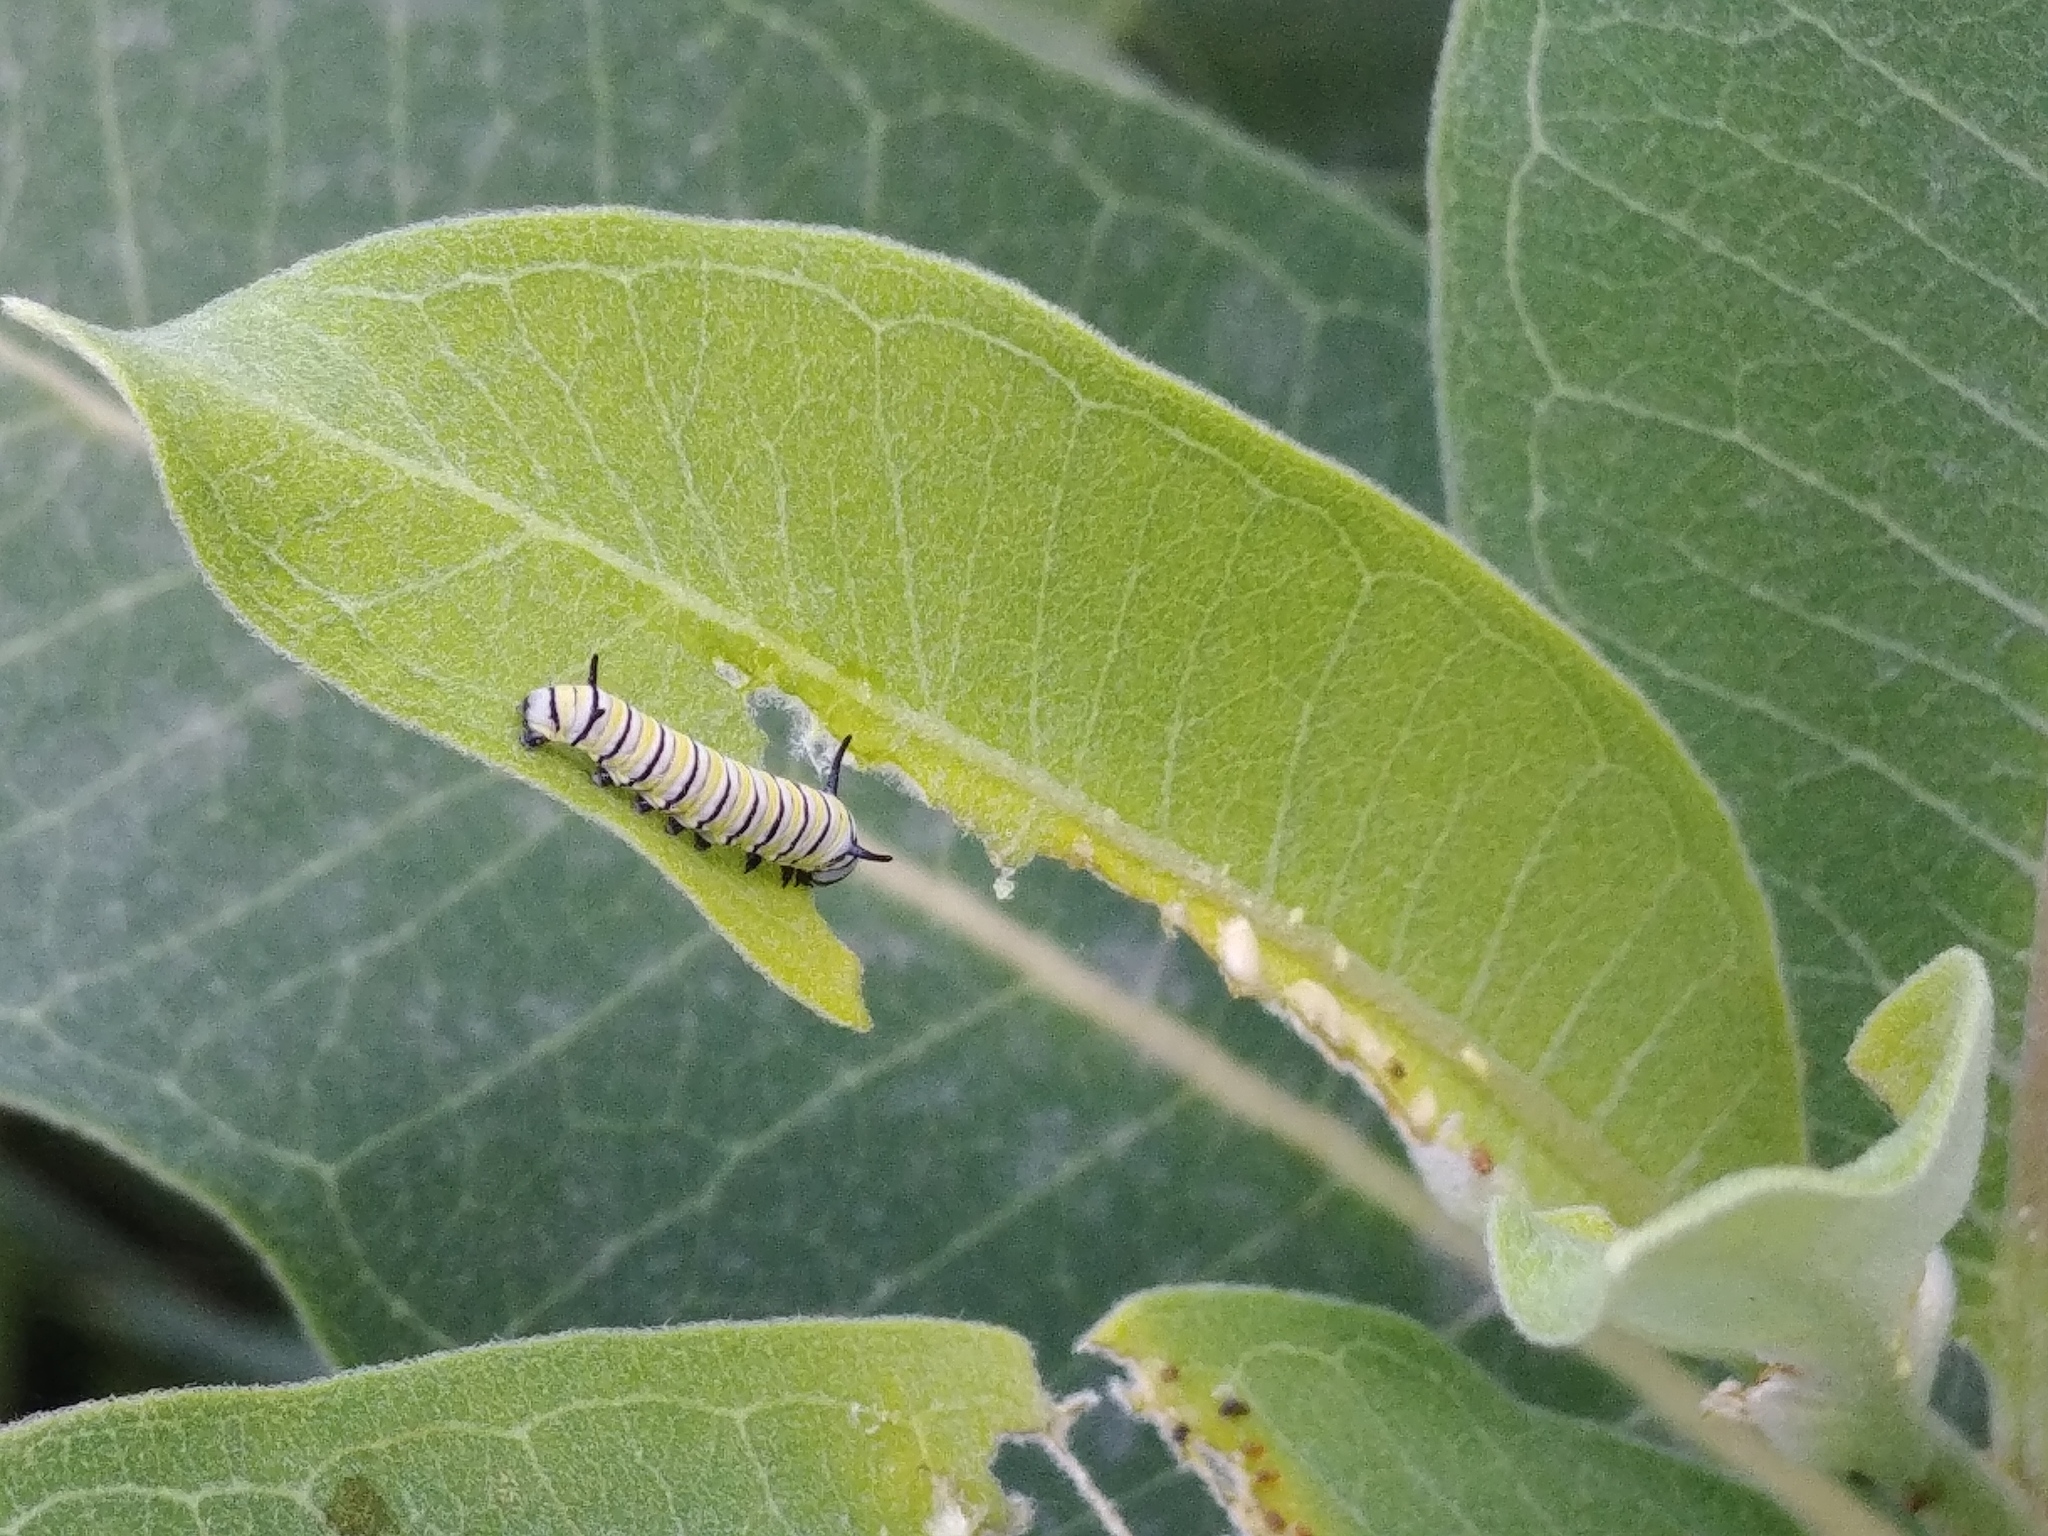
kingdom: Animalia
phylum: Arthropoda
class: Insecta
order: Lepidoptera
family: Nymphalidae
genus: Danaus
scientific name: Danaus plexippus
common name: Monarch
